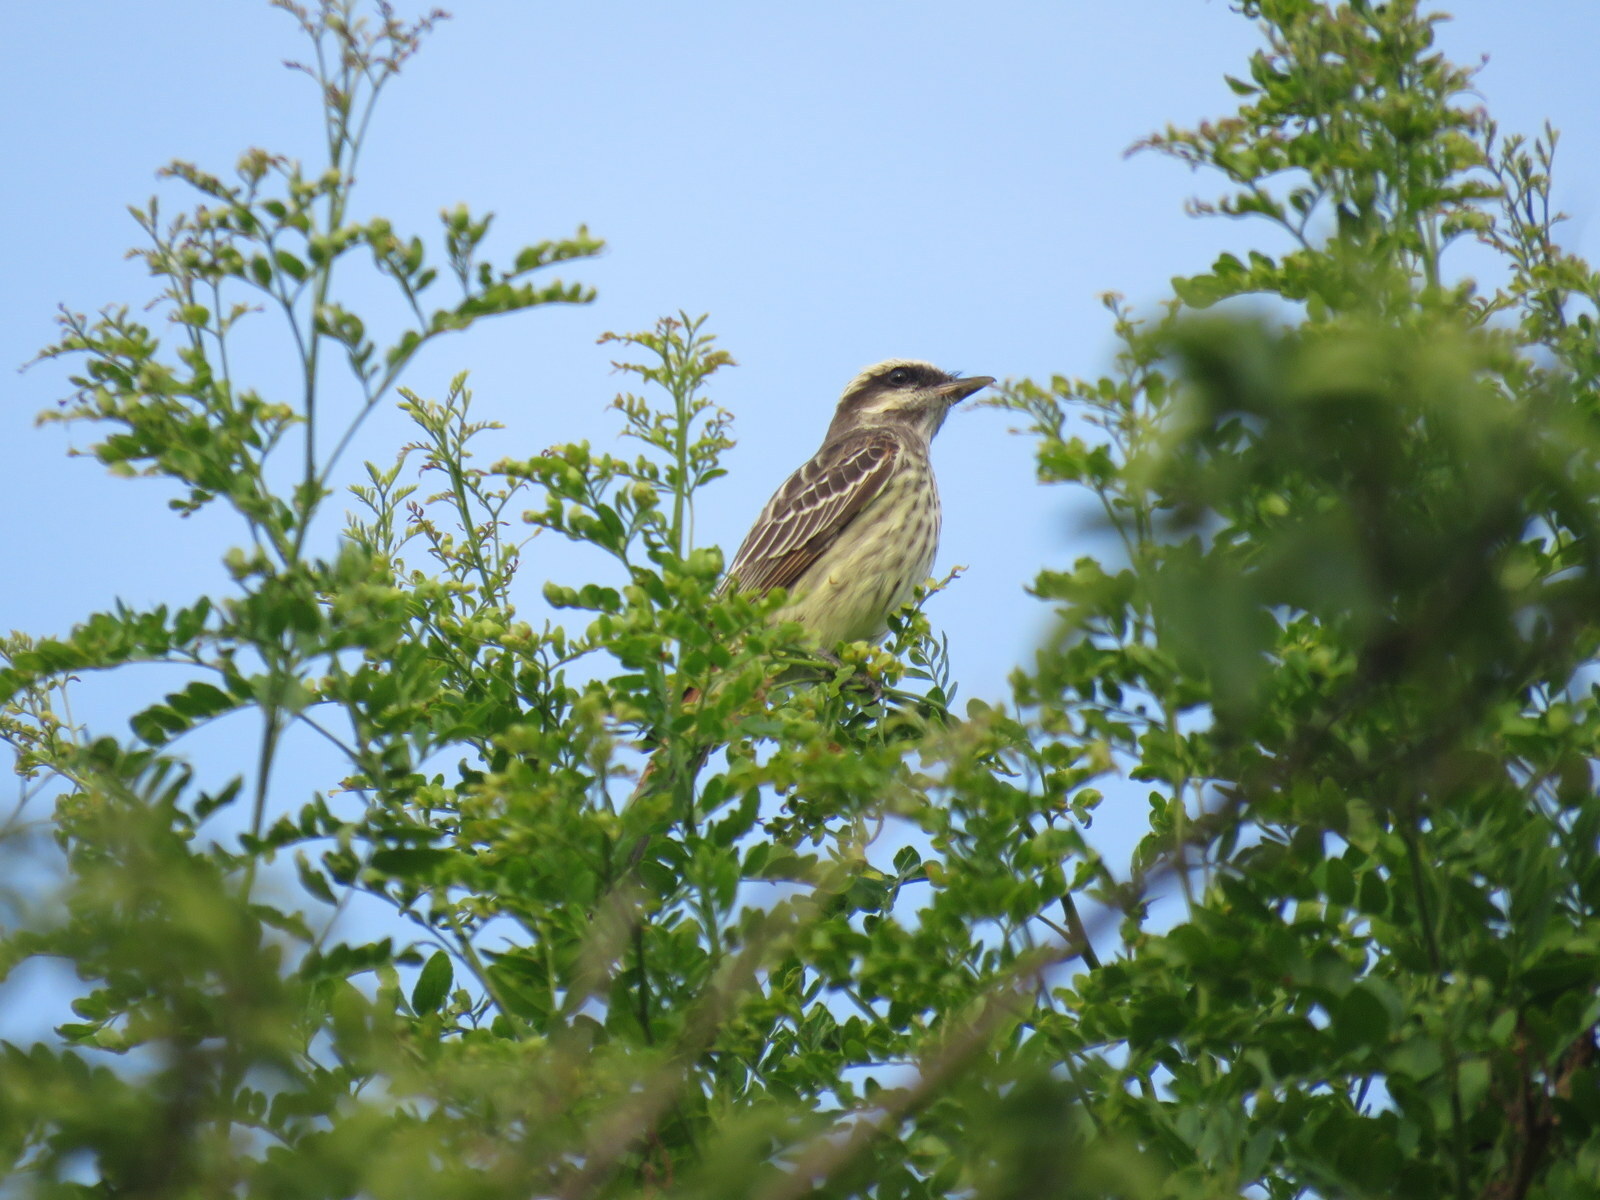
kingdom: Animalia
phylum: Chordata
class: Aves
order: Passeriformes
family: Tyrannidae
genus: Empidonomus
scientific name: Empidonomus varius
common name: Variegated flycatcher
